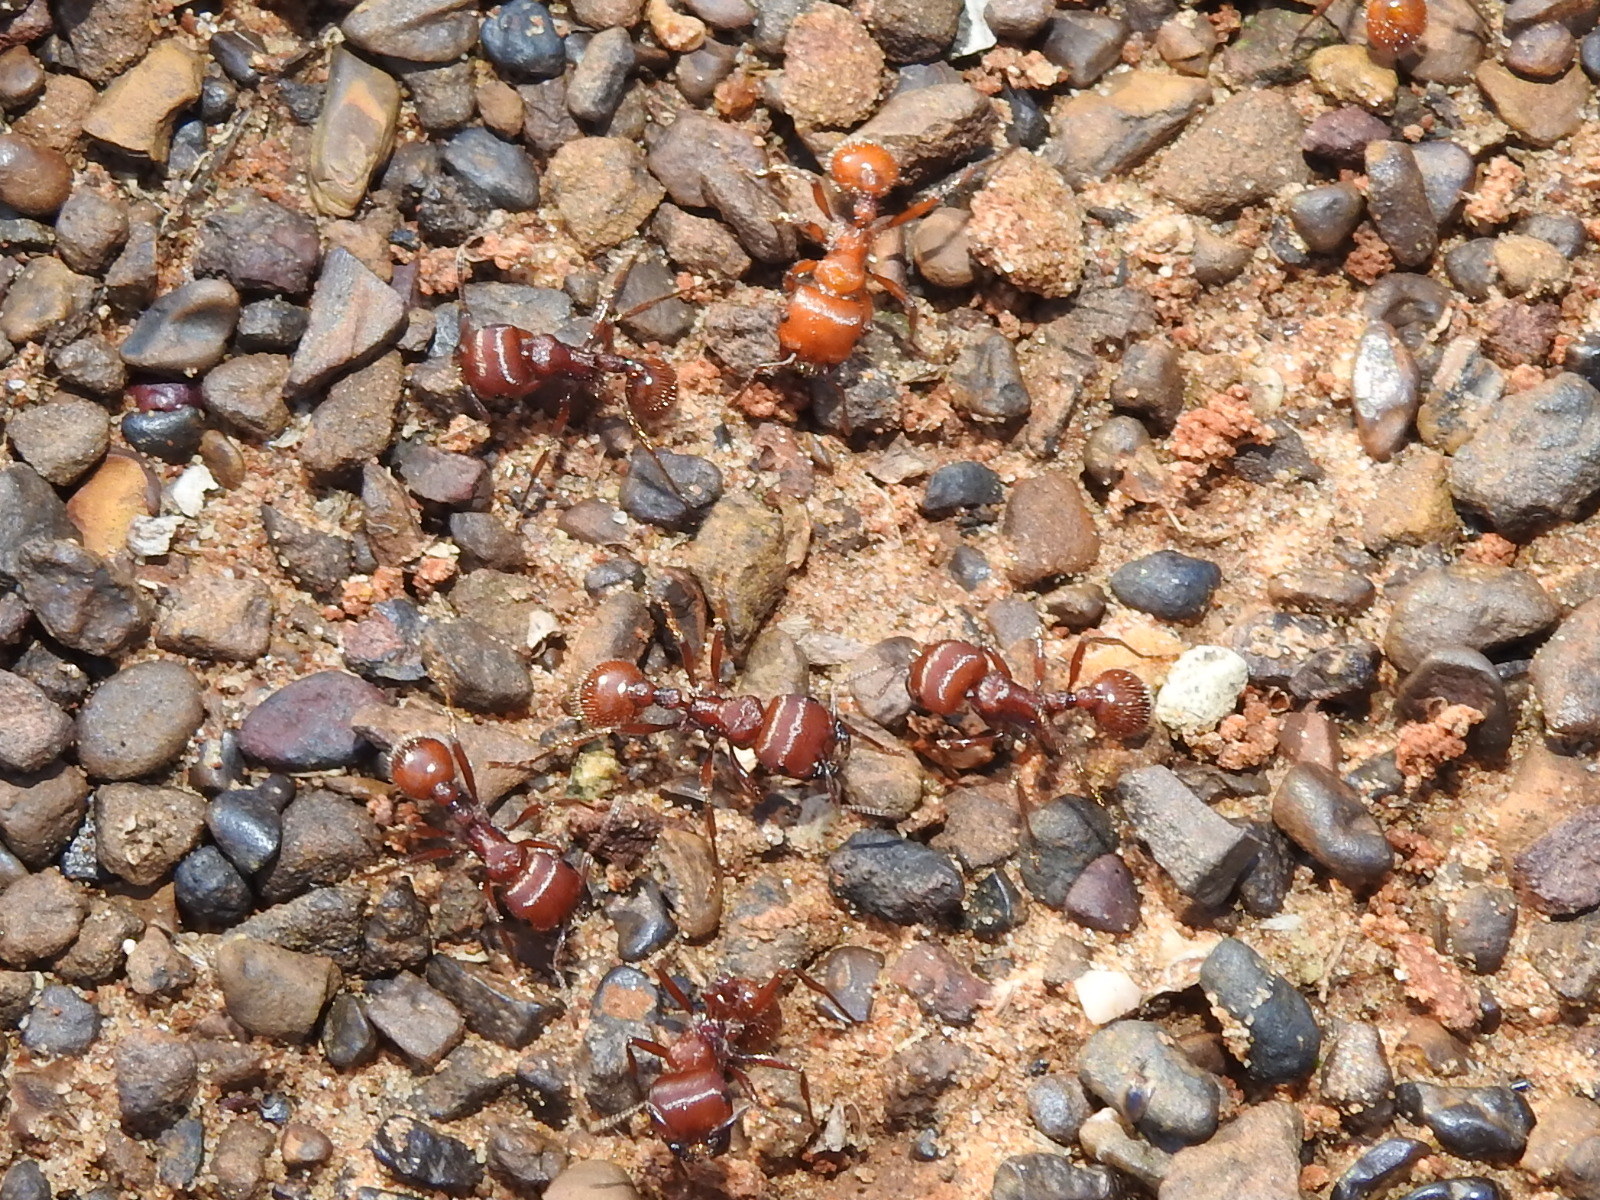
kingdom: Animalia
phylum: Arthropoda
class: Insecta
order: Hymenoptera
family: Formicidae
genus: Pogonomyrmex
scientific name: Pogonomyrmex barbatus
